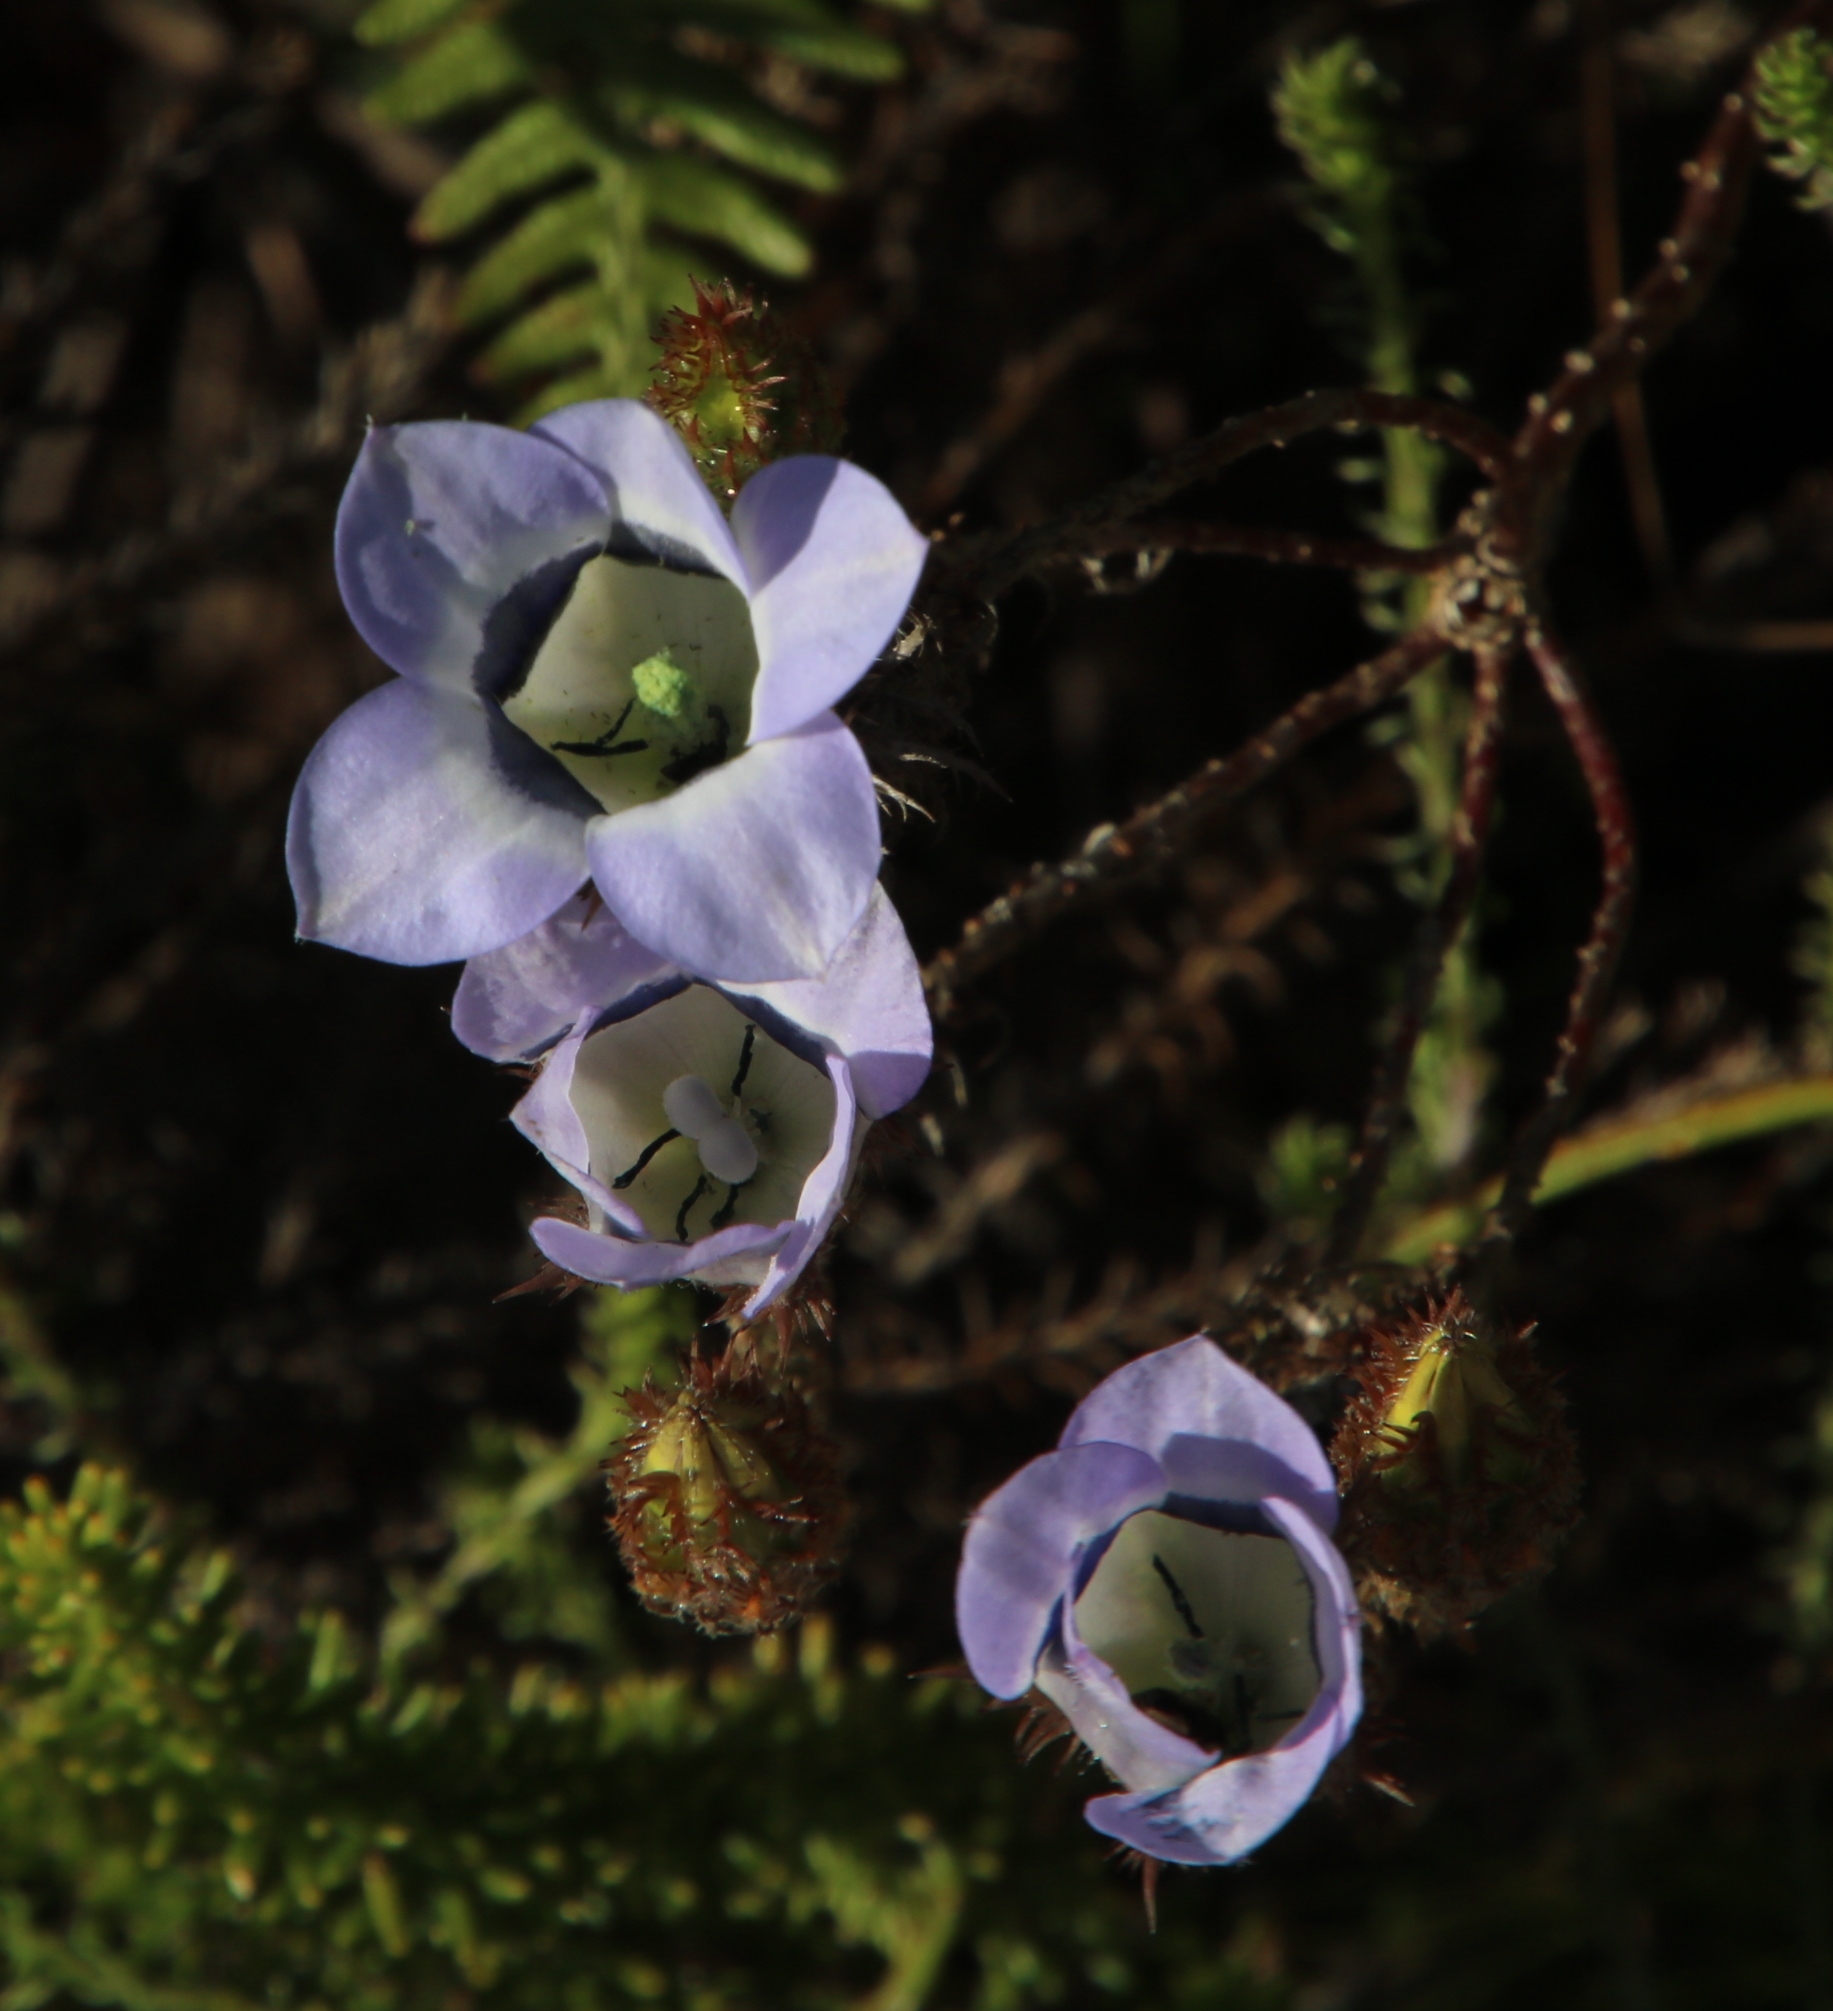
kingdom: Plantae
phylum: Tracheophyta
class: Magnoliopsida
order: Asterales
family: Campanulaceae
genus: Roella
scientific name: Roella ciliata
